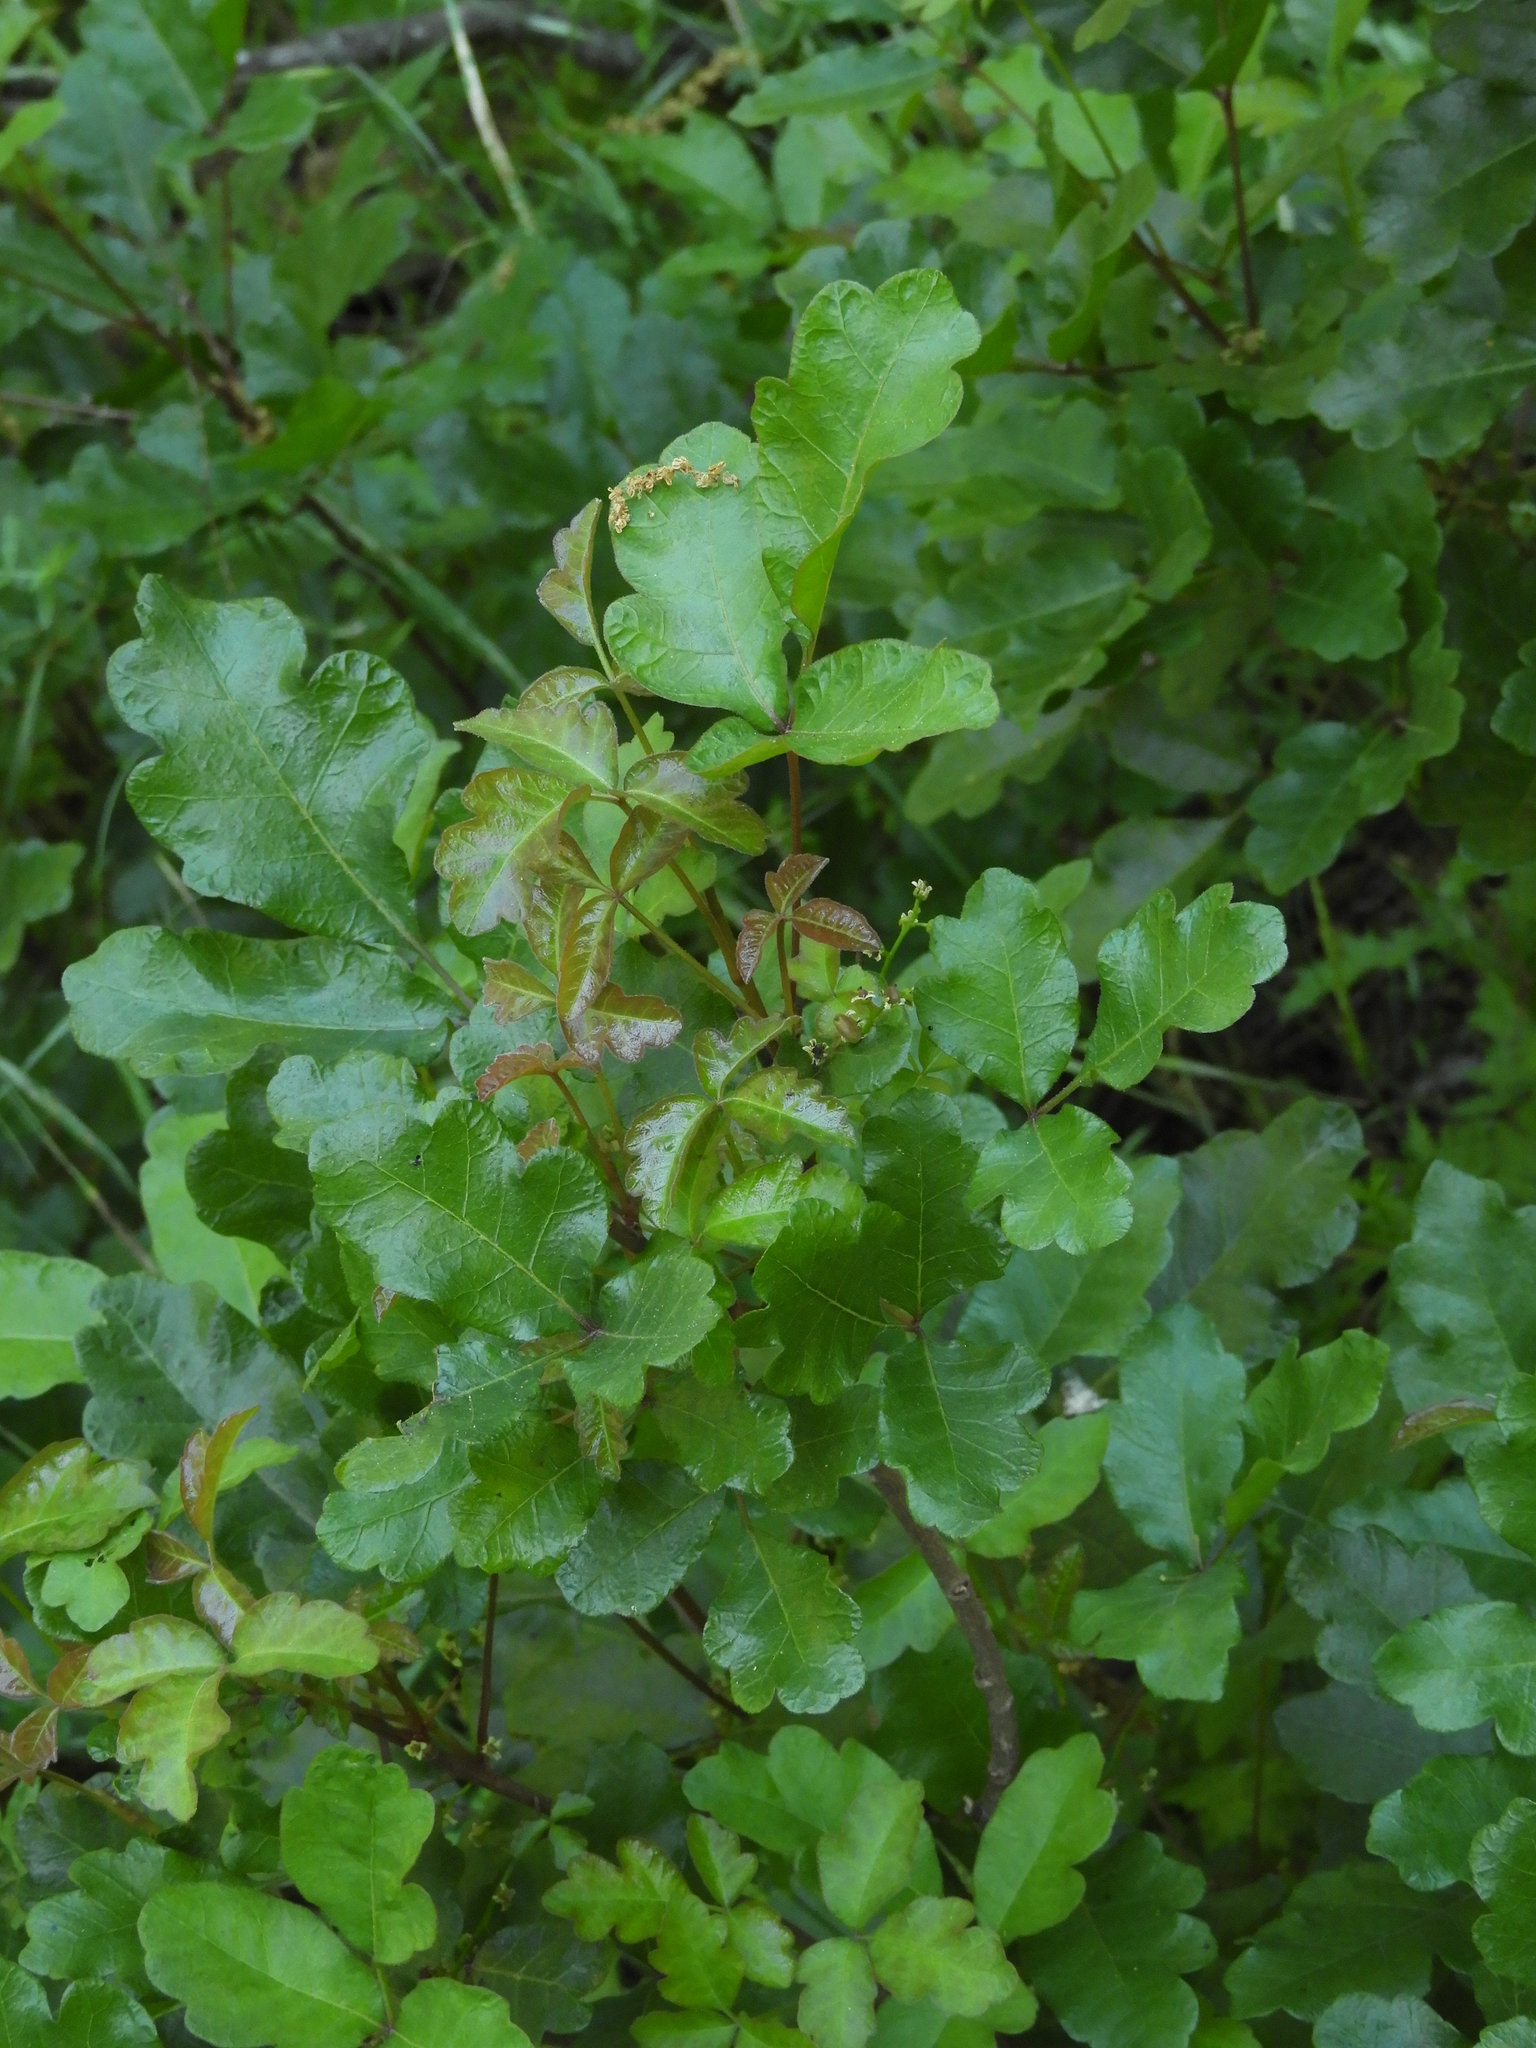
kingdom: Plantae
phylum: Tracheophyta
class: Magnoliopsida
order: Sapindales
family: Anacardiaceae
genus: Toxicodendron
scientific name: Toxicodendron diversilobum
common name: Pacific poison-oak
